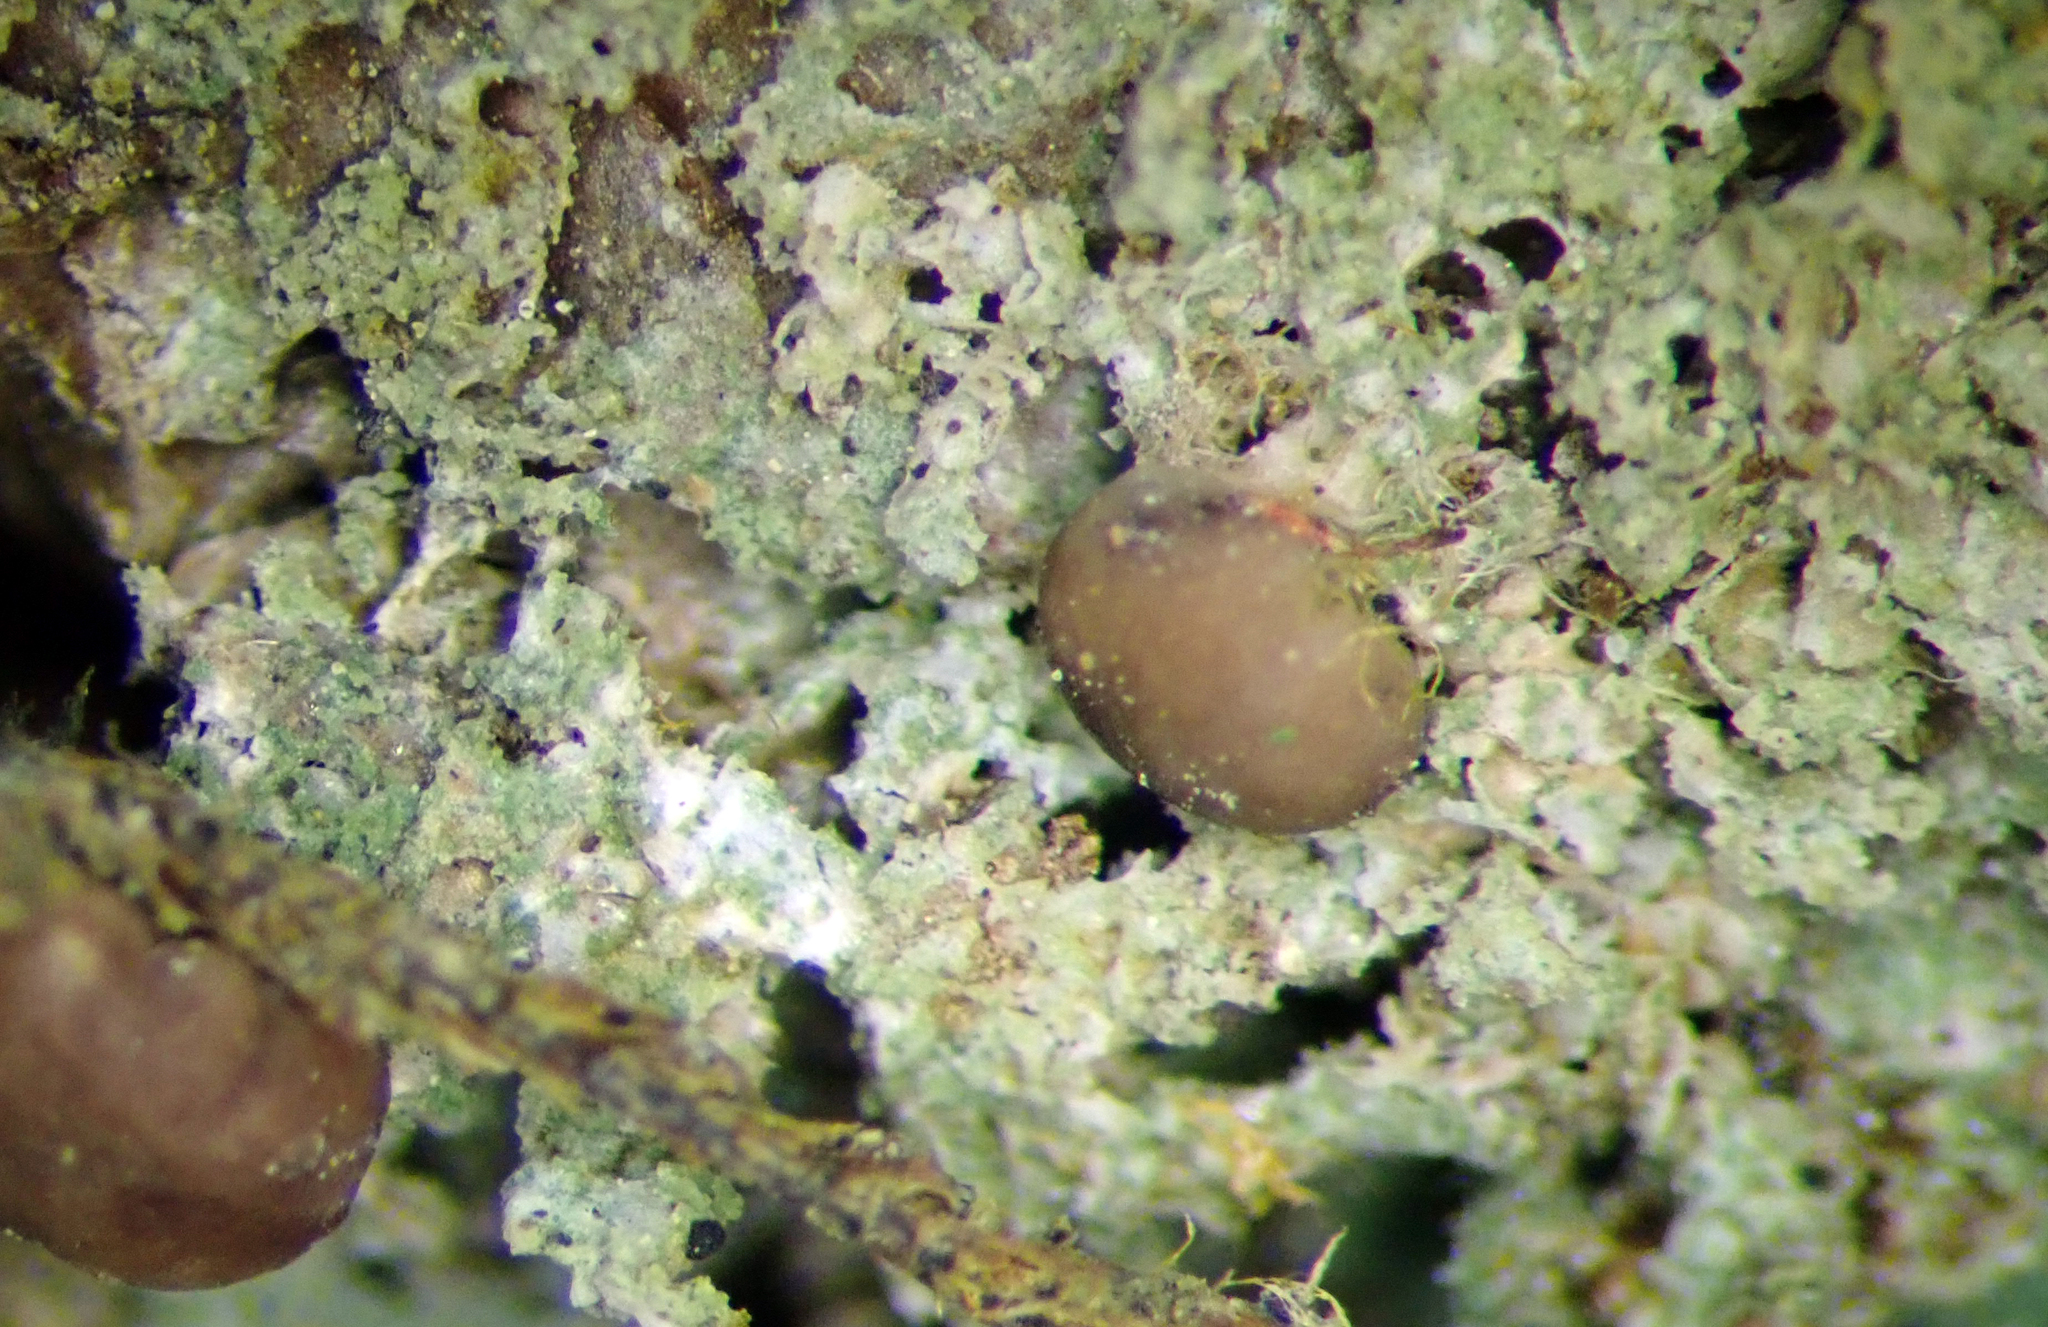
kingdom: Fungi
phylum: Ascomycota
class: Lecanoromycetes
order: Lecanorales
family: Byssolomataceae
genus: Bapalmuia
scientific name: Bapalmuia buchananii
